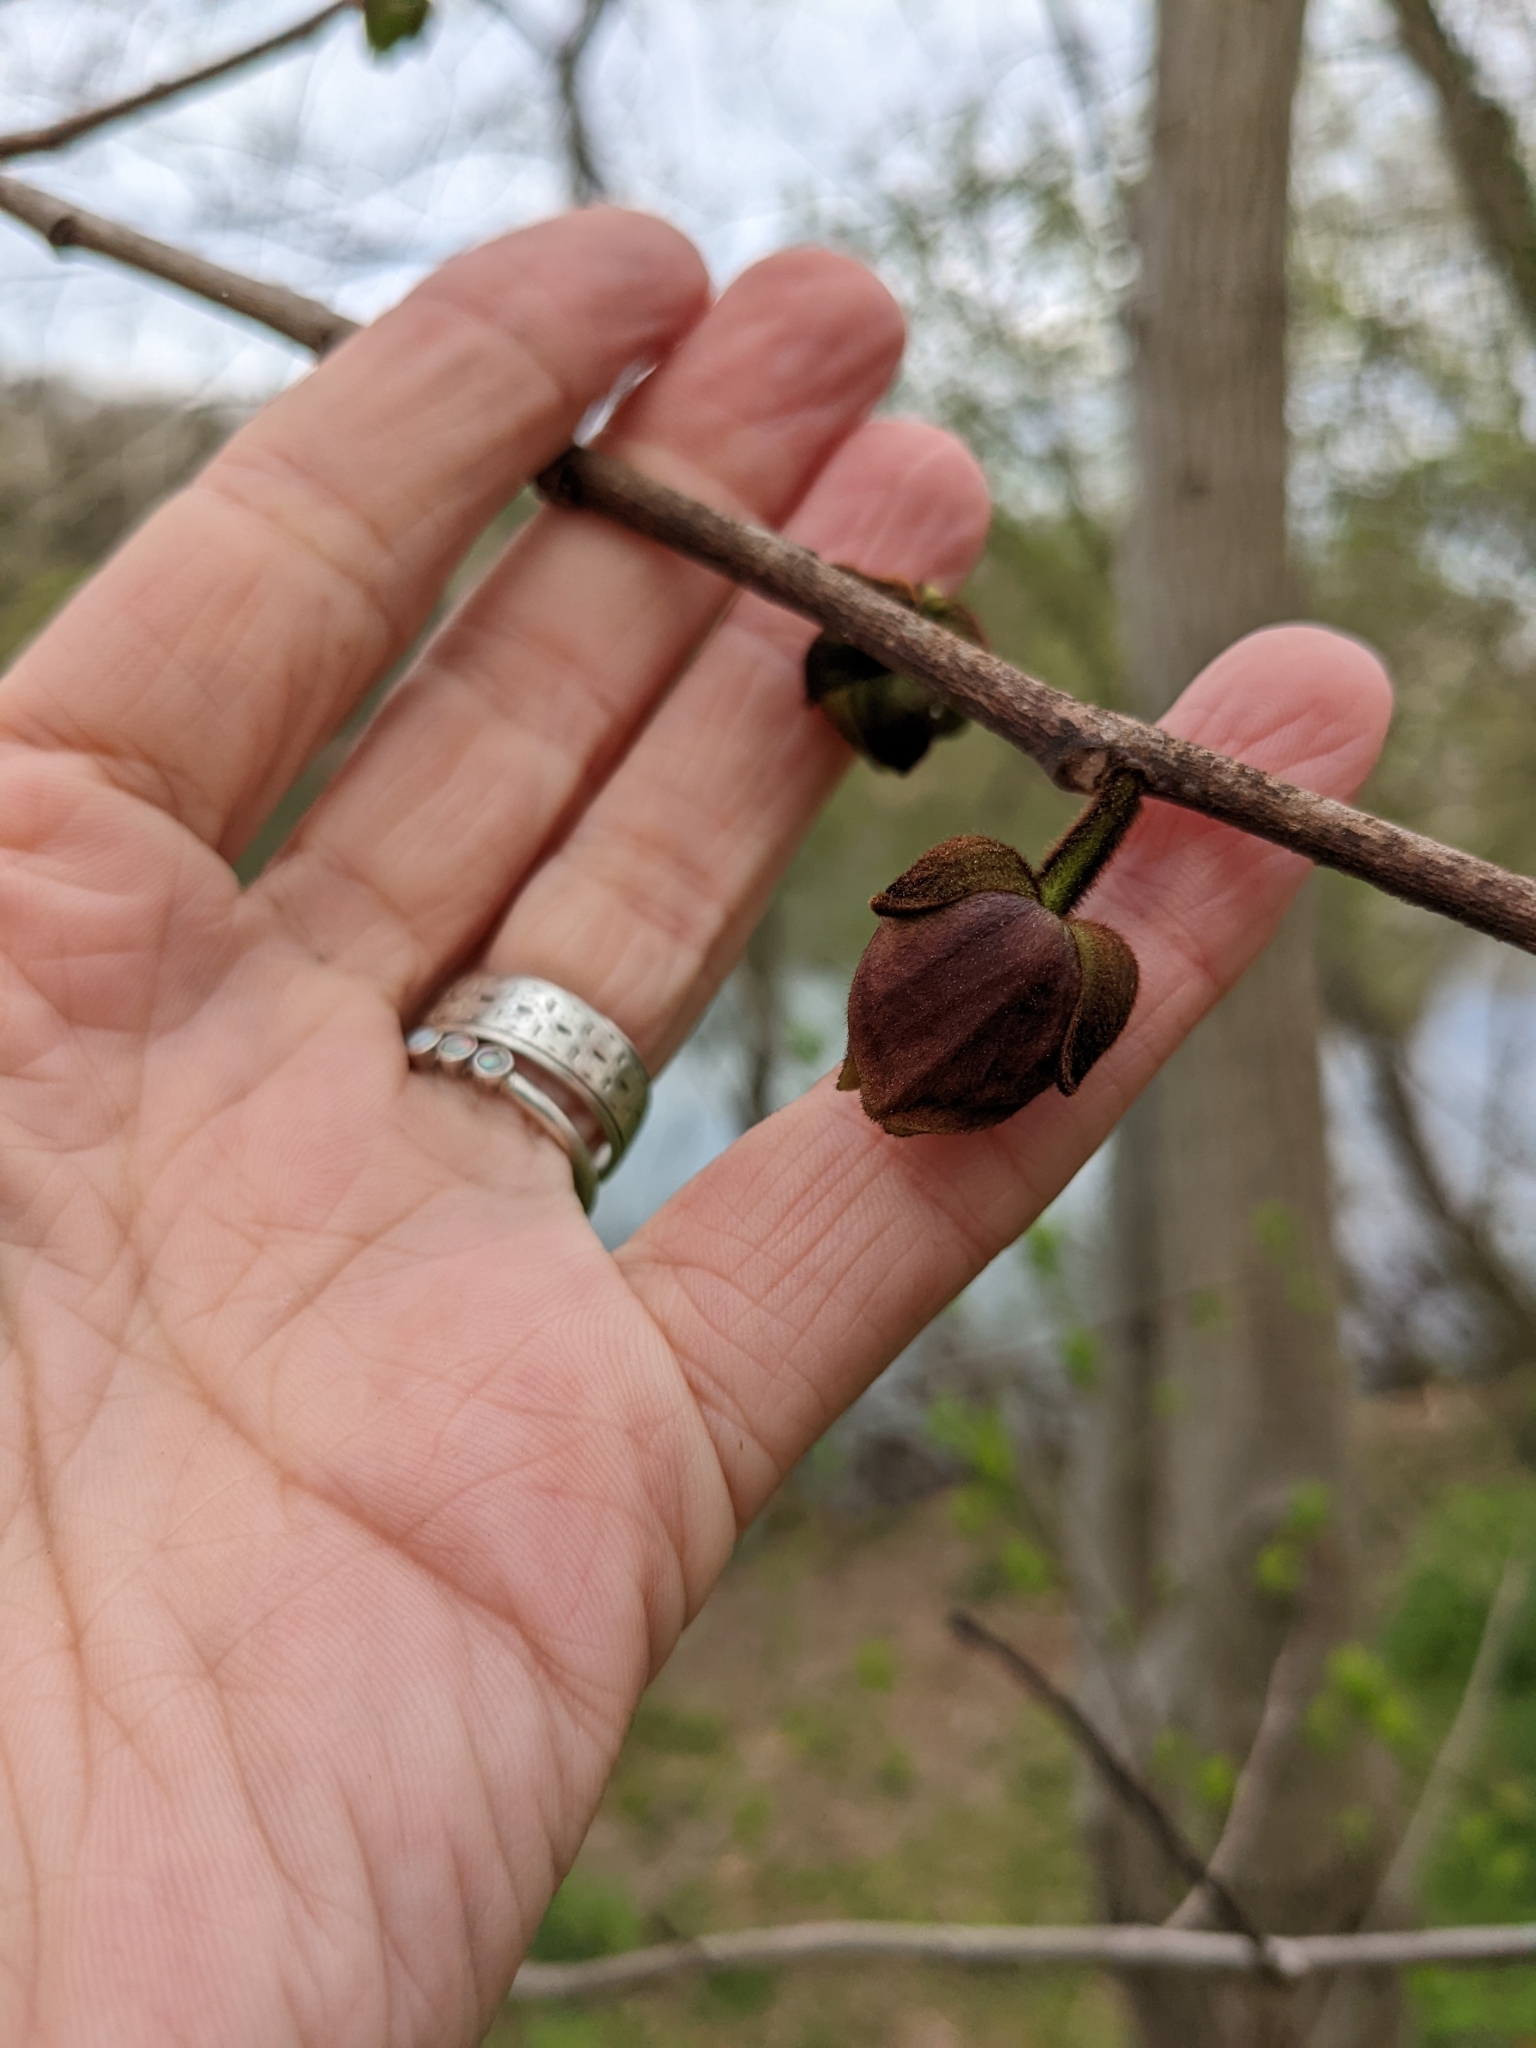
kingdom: Plantae
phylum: Tracheophyta
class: Magnoliopsida
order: Magnoliales
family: Annonaceae
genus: Asimina
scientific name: Asimina triloba
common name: Dog-banana
